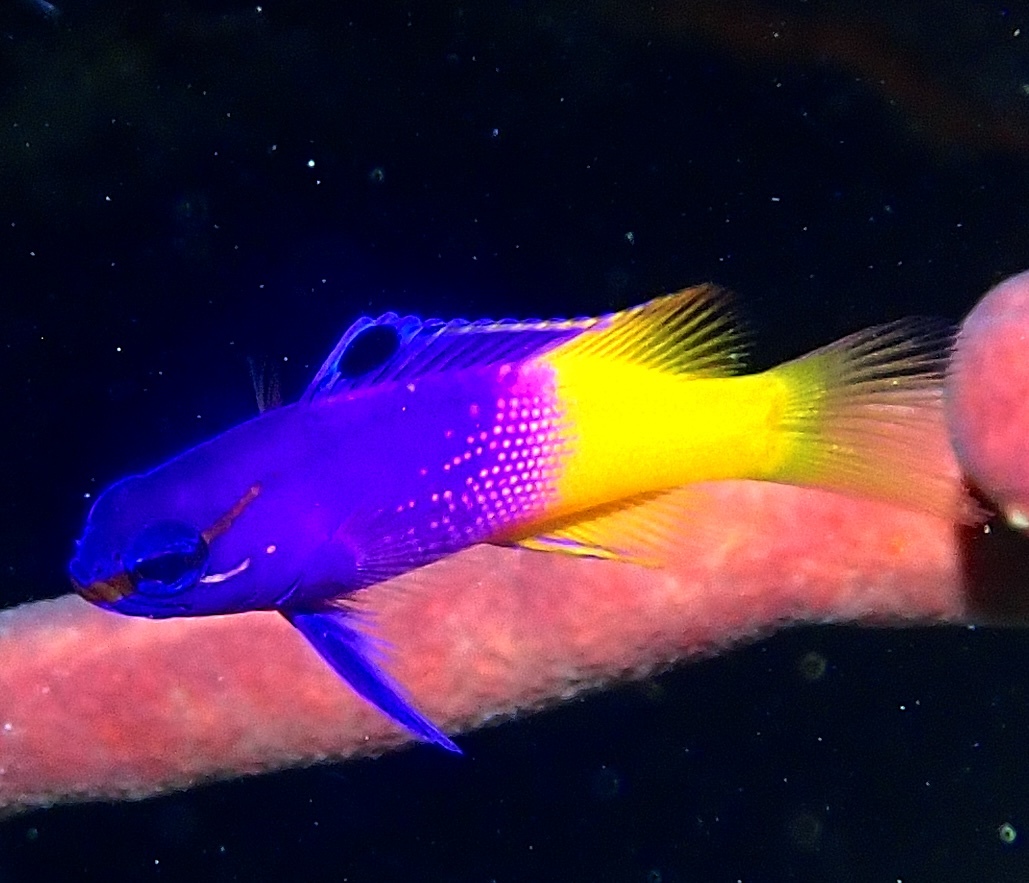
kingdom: Animalia
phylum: Chordata
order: Perciformes
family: Grammatidae
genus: Gramma
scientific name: Gramma loreto
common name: Fairy basslet
